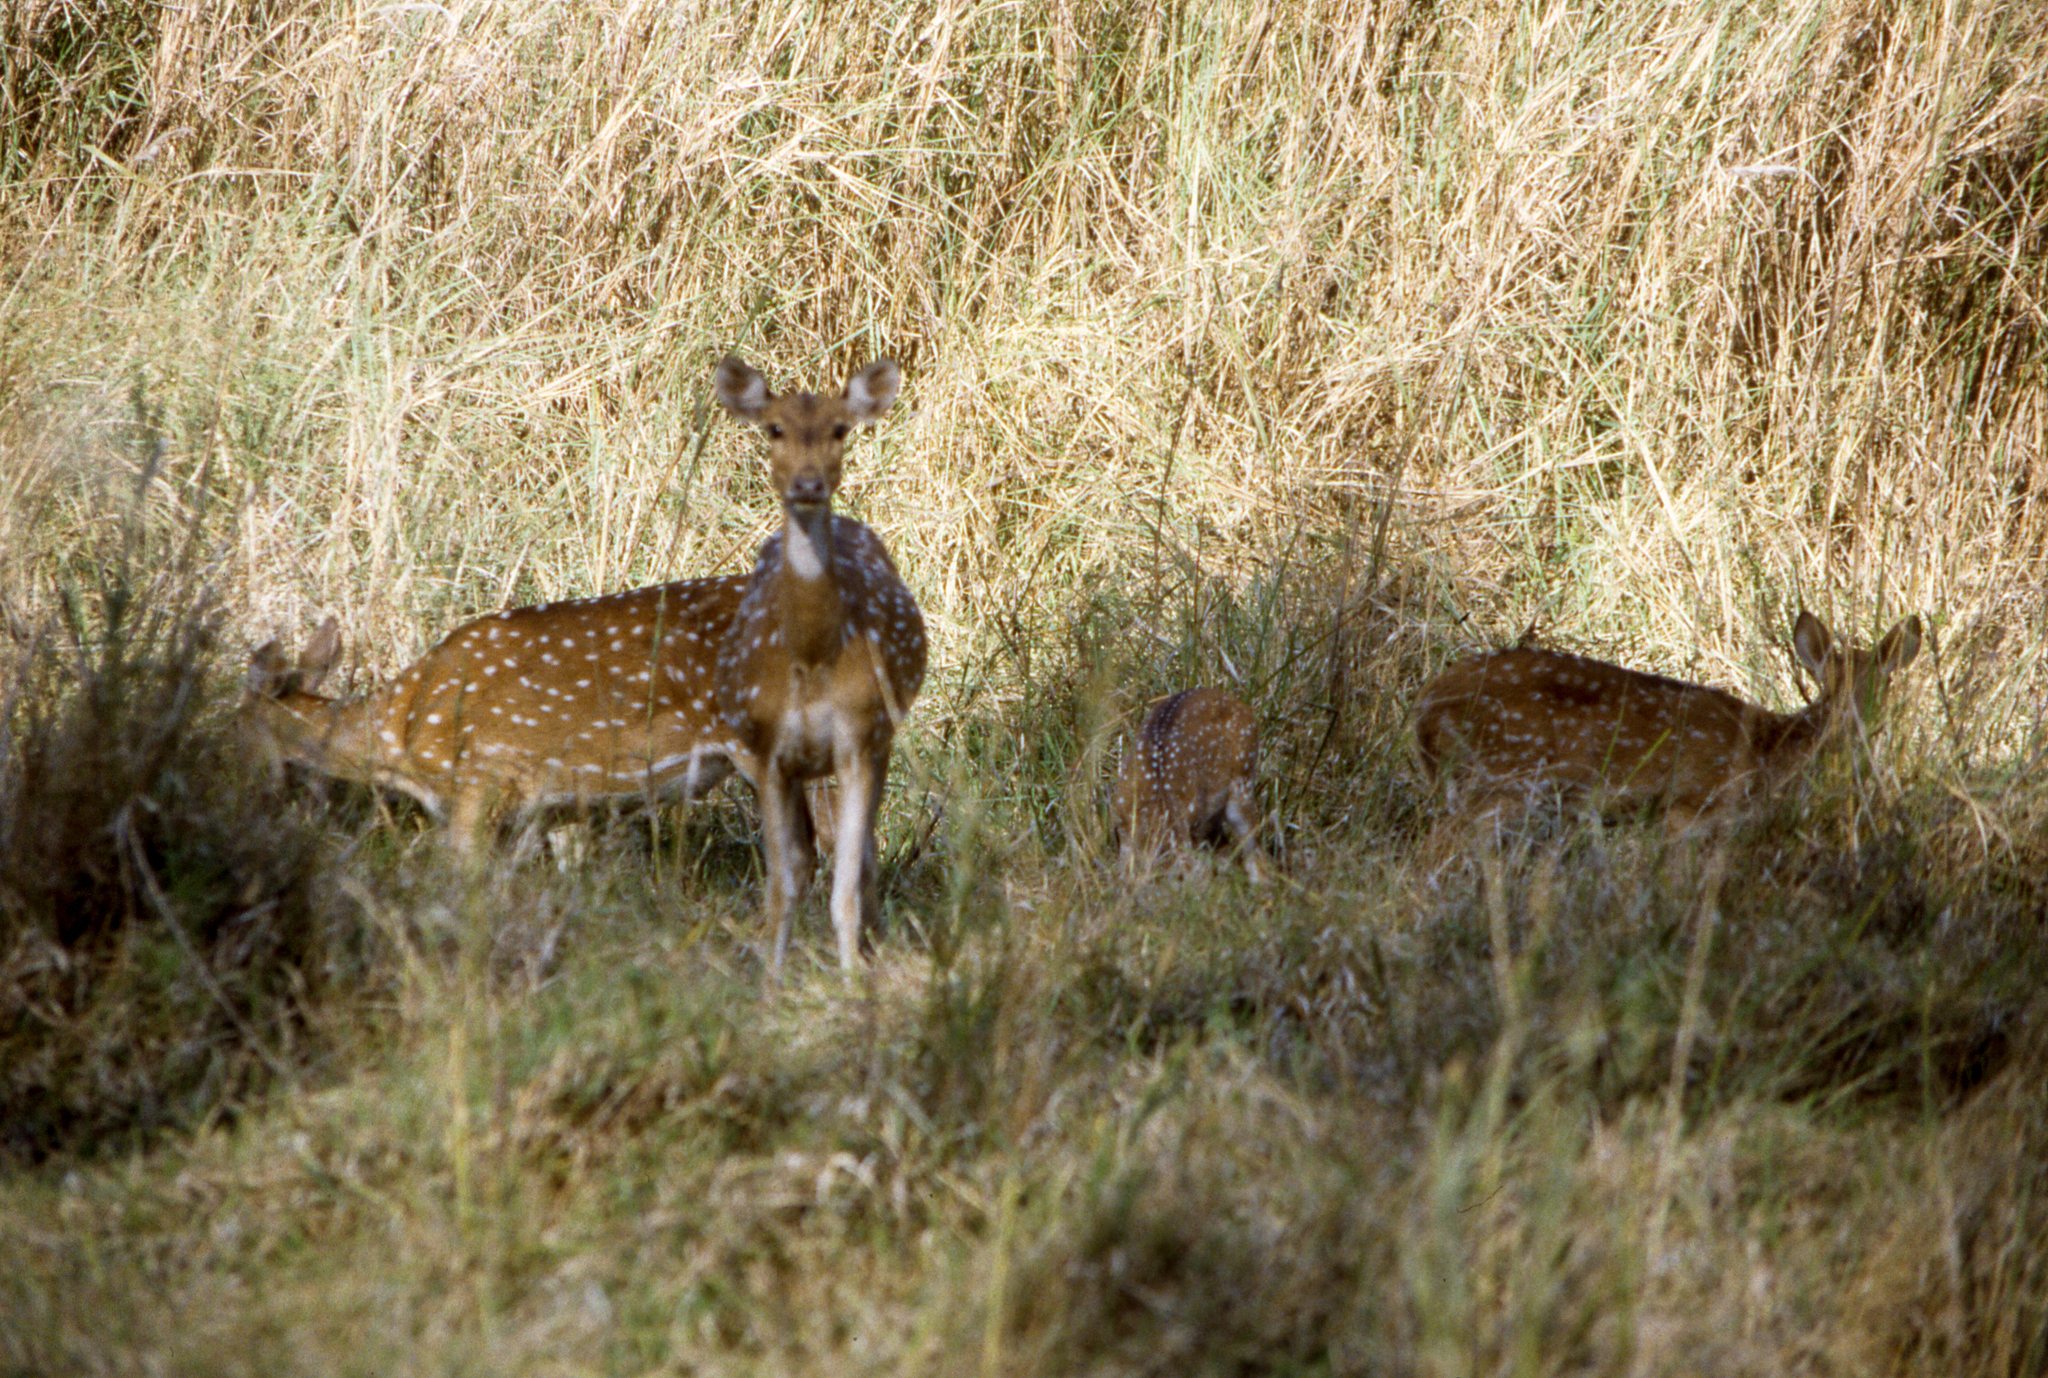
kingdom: Animalia
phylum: Chordata
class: Mammalia
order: Artiodactyla
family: Cervidae
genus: Axis
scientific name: Axis axis
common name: Chital
